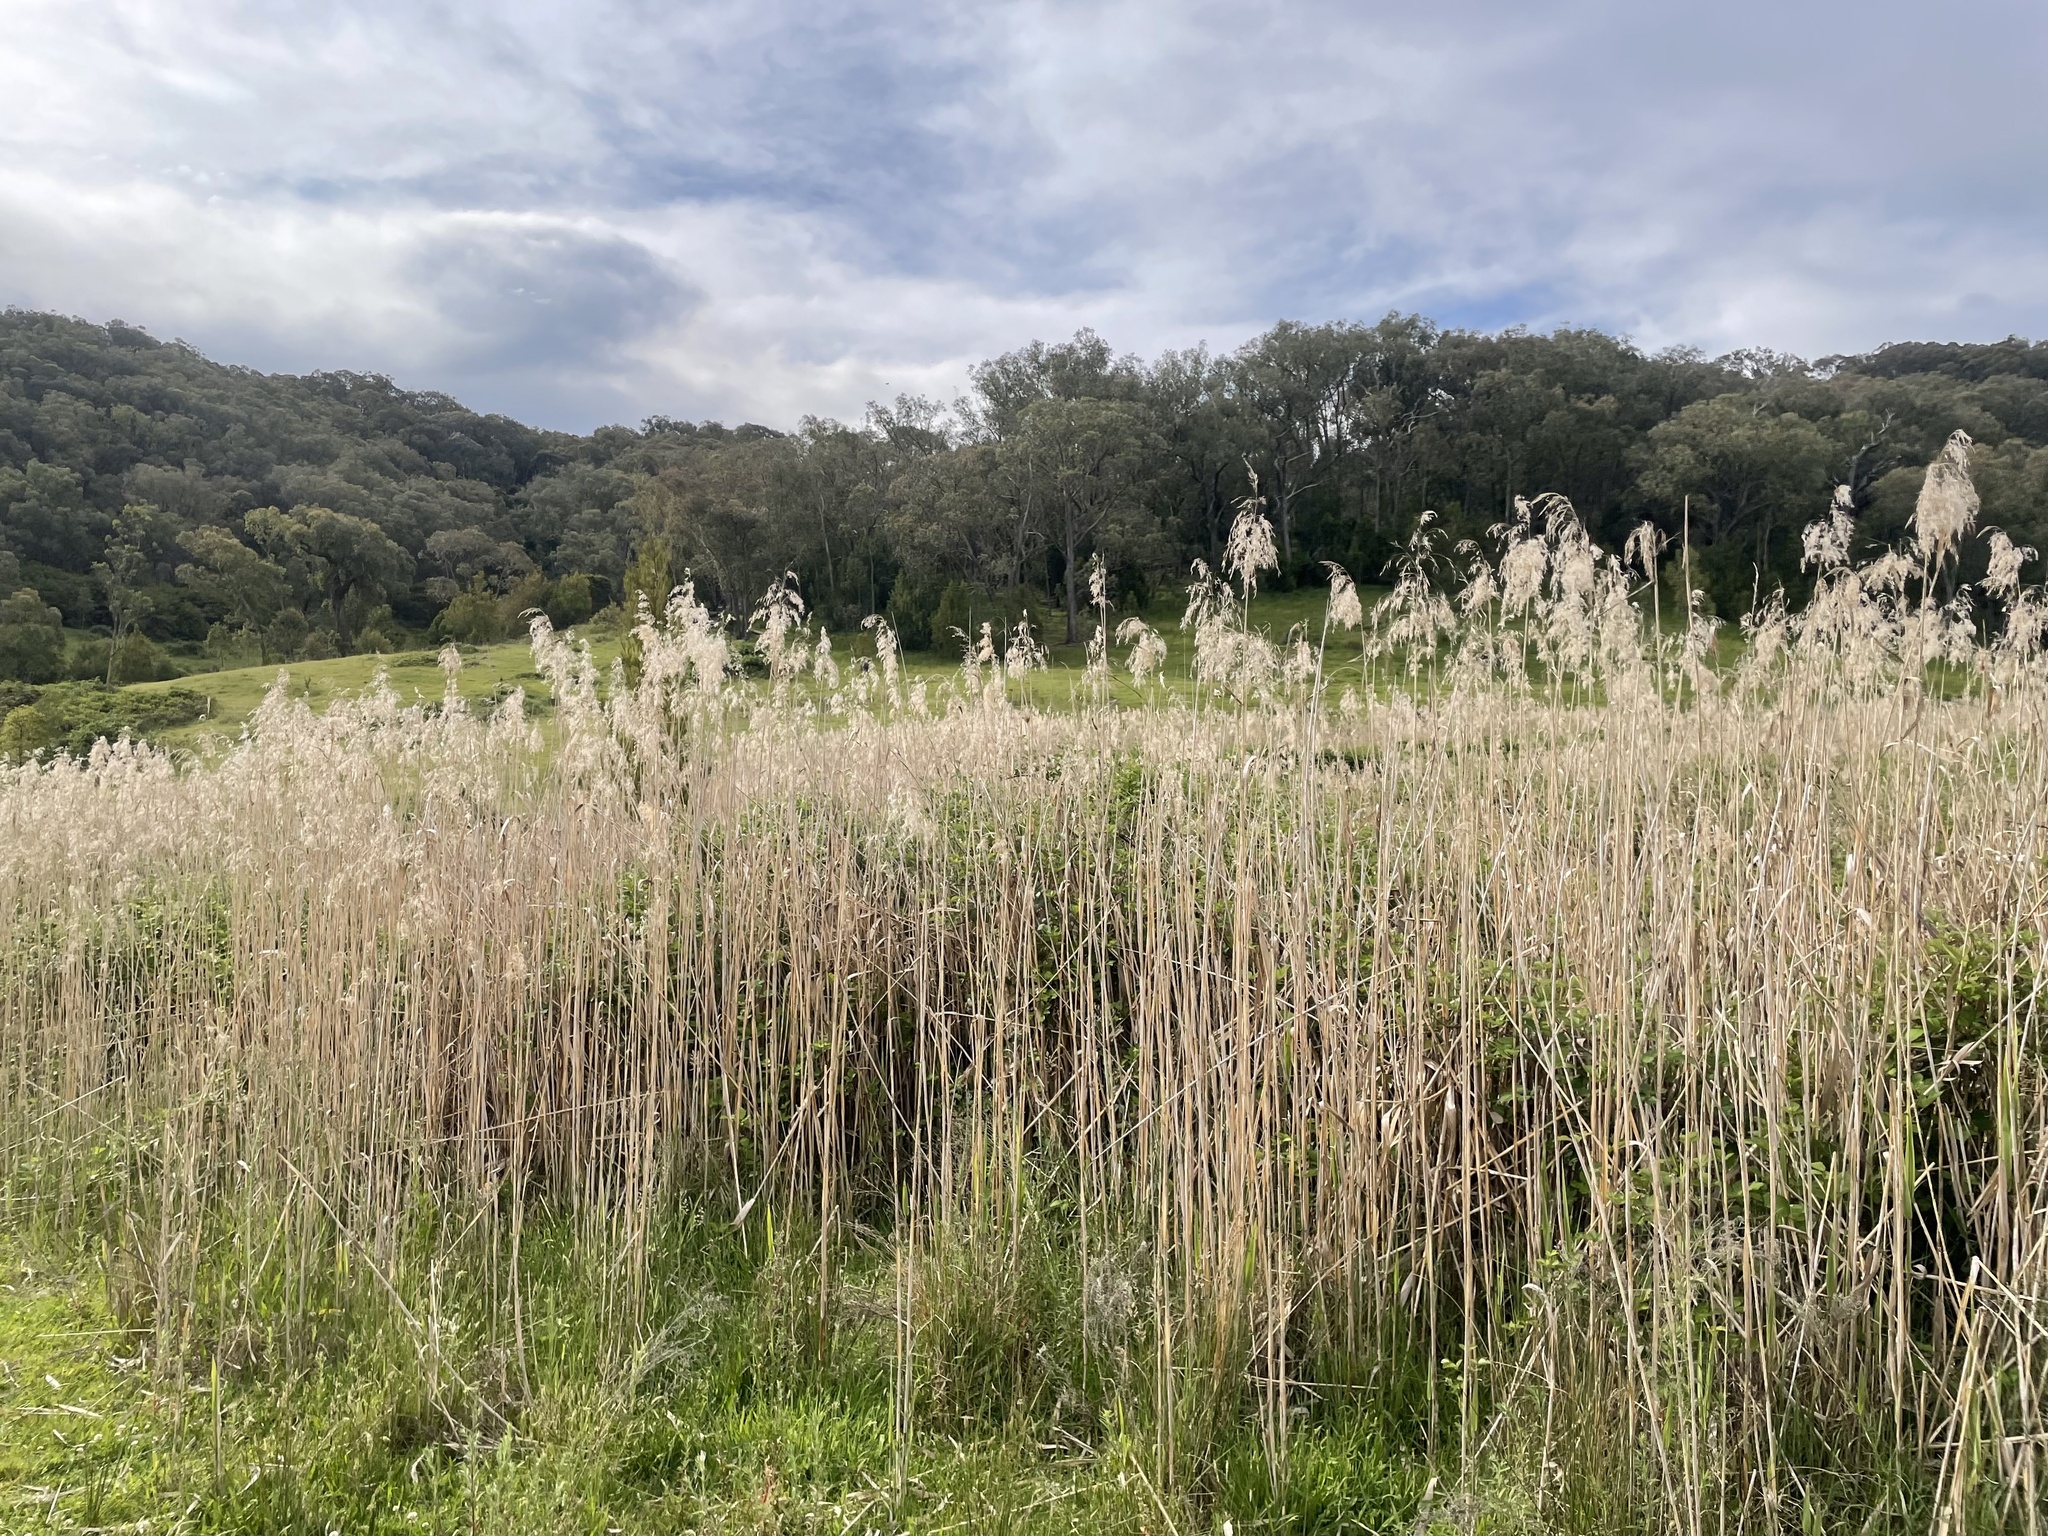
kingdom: Plantae
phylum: Tracheophyta
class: Liliopsida
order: Poales
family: Poaceae
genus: Phragmites
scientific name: Phragmites australis
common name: Common reed
